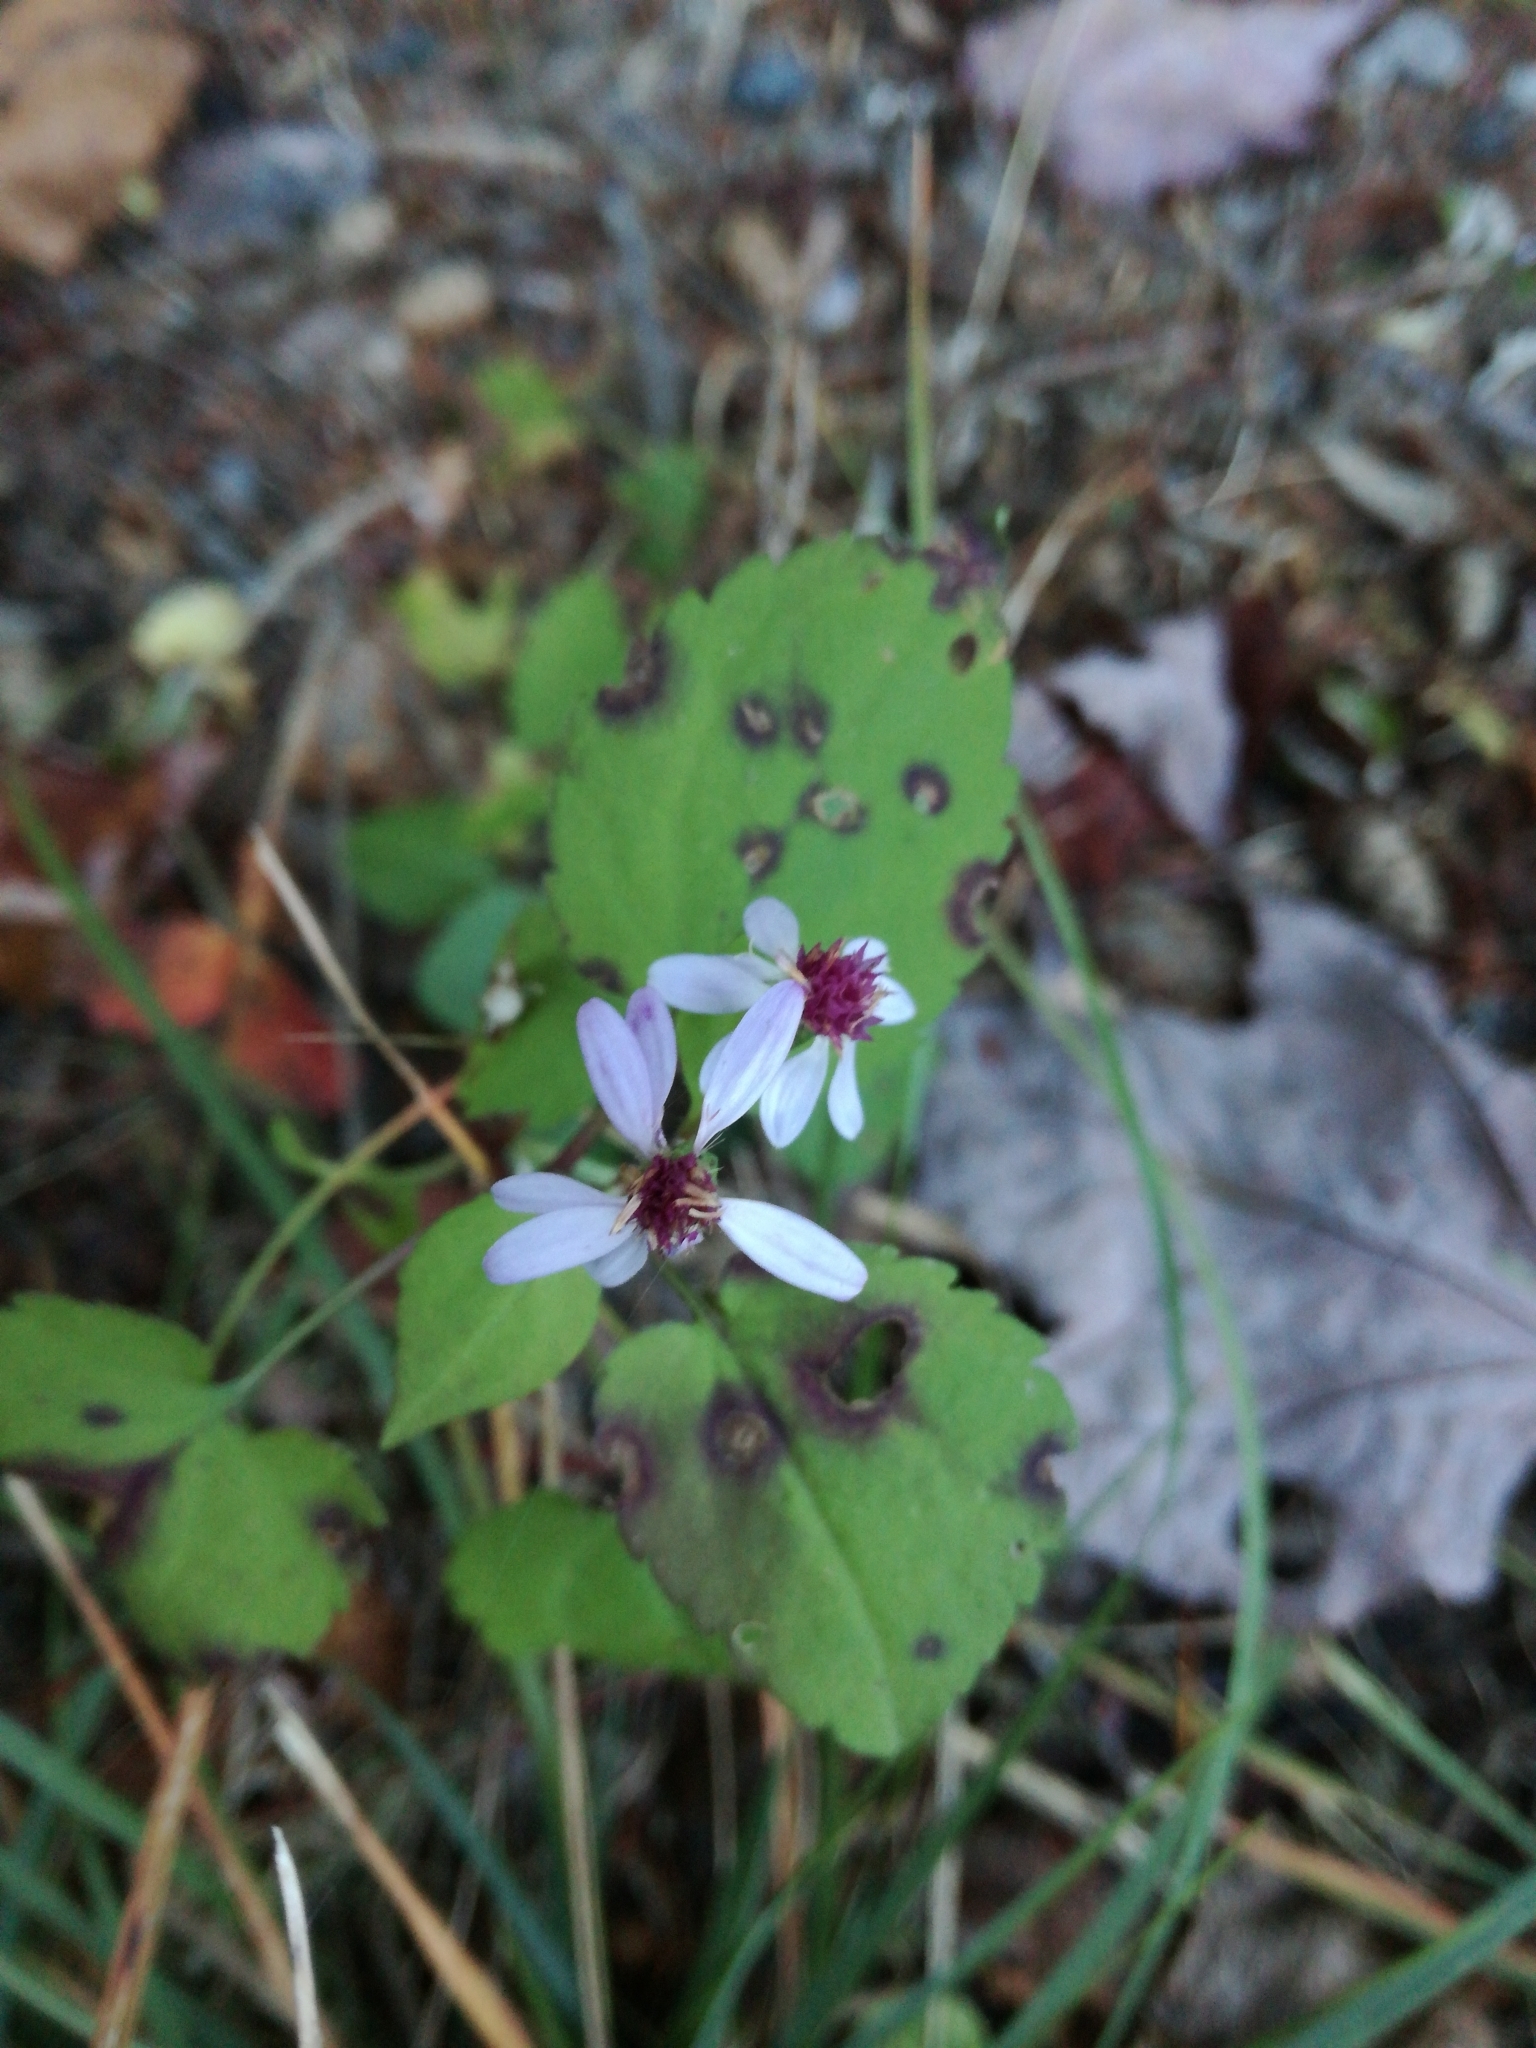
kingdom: Plantae
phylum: Tracheophyta
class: Magnoliopsida
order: Asterales
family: Asteraceae
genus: Symphyotrichum
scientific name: Symphyotrichum cordifolium
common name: Beeweed
